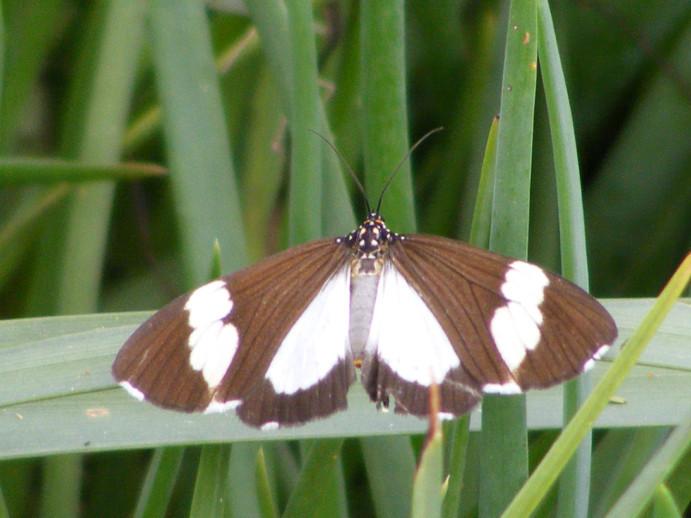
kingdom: Animalia
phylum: Arthropoda
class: Insecta
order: Lepidoptera
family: Erebidae
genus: Nyctemera
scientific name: Nyctemera
